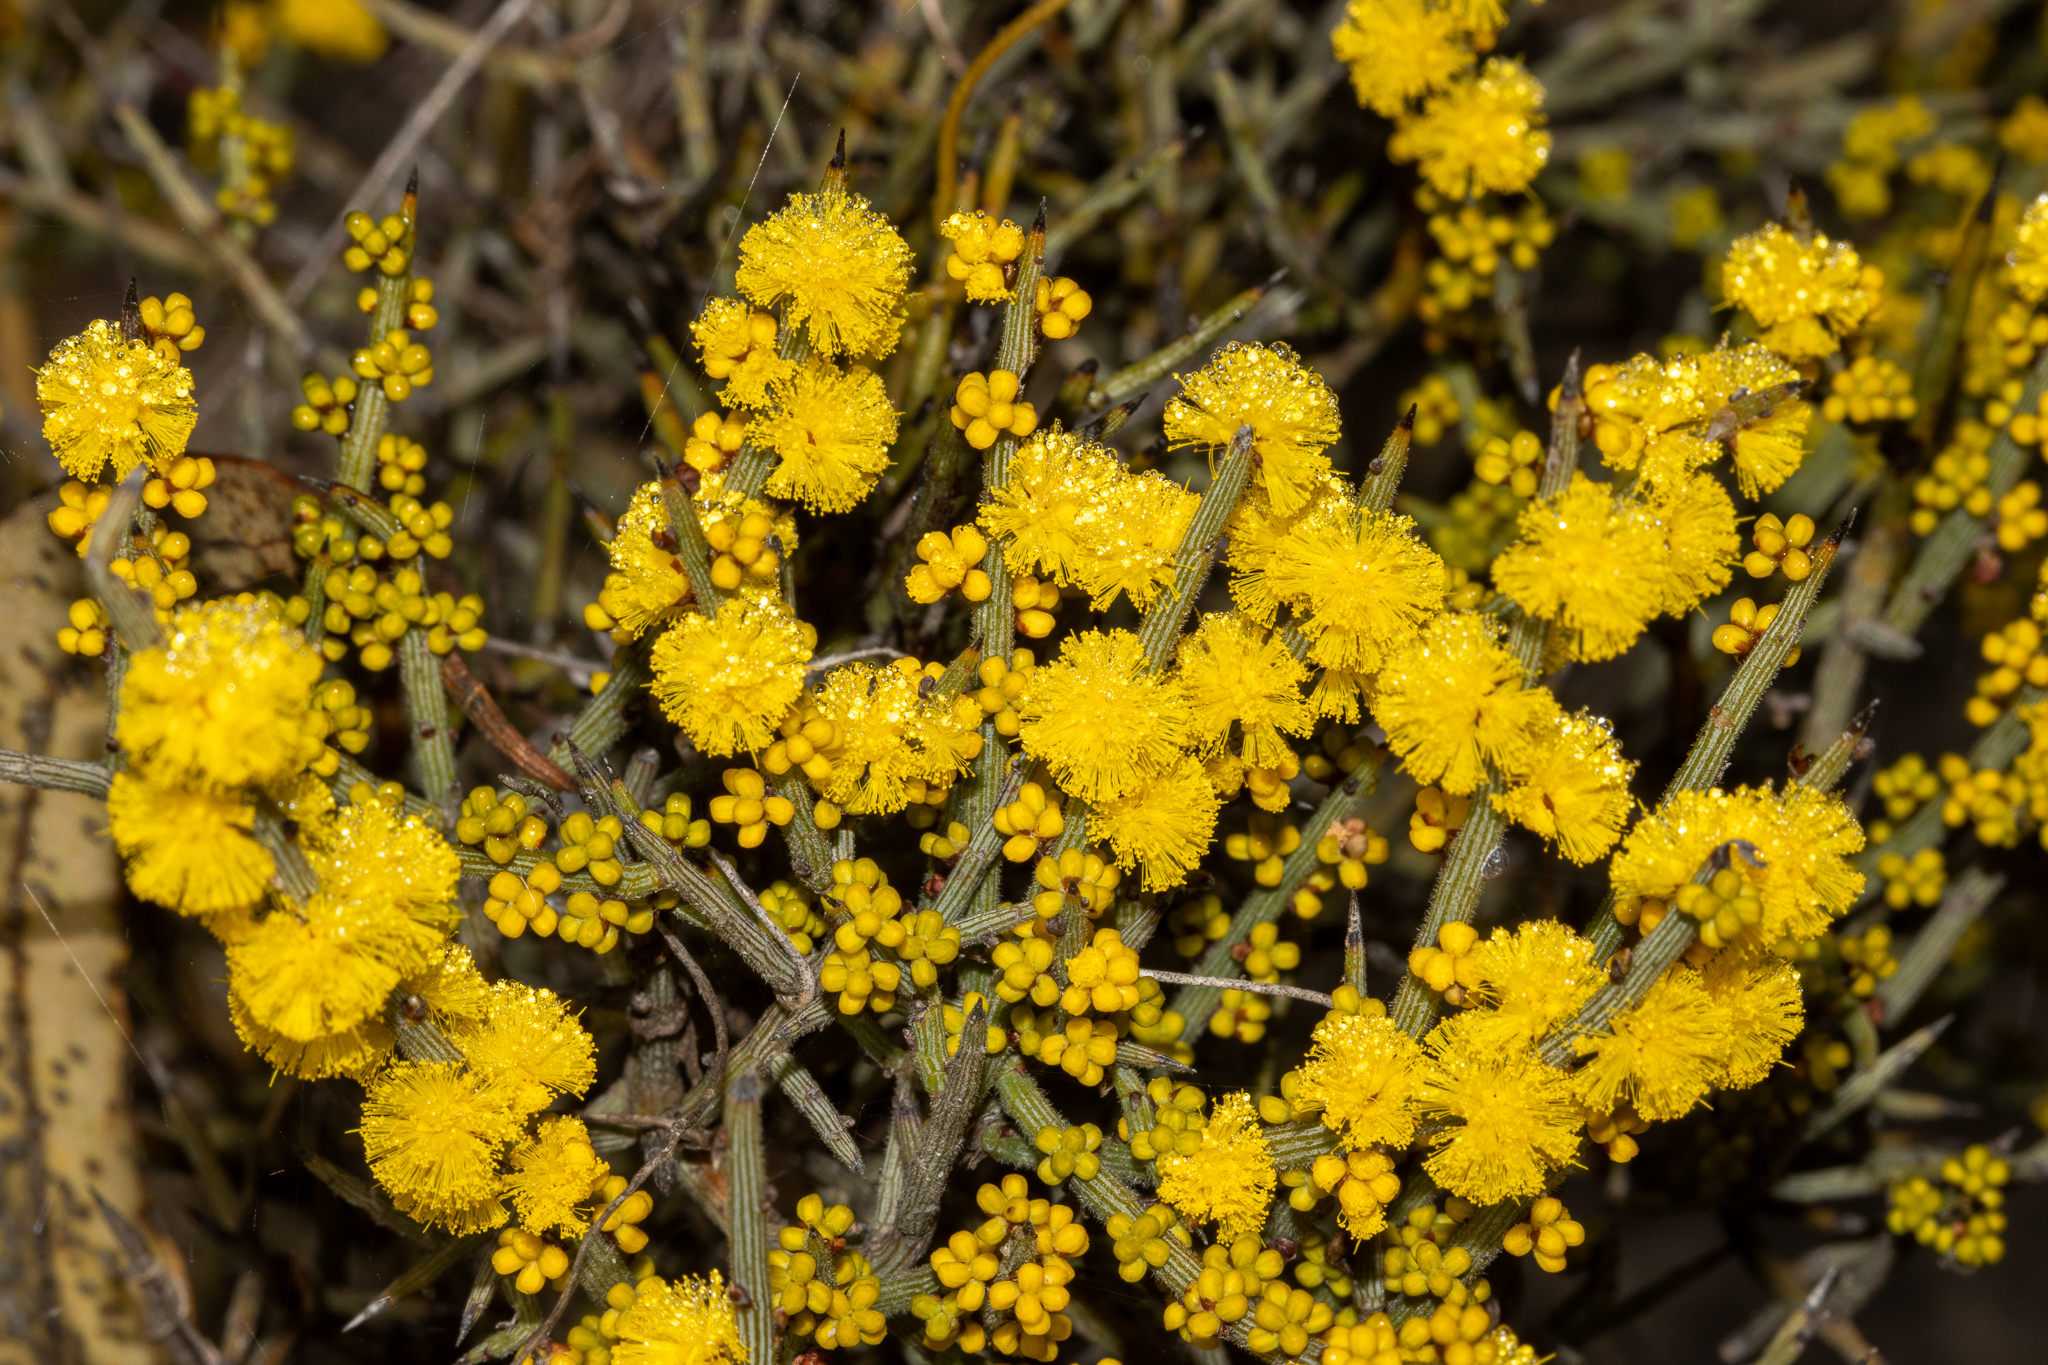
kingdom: Plantae
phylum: Tracheophyta
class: Magnoliopsida
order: Fabales
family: Fabaceae
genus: Acacia
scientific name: Acacia spinescens
